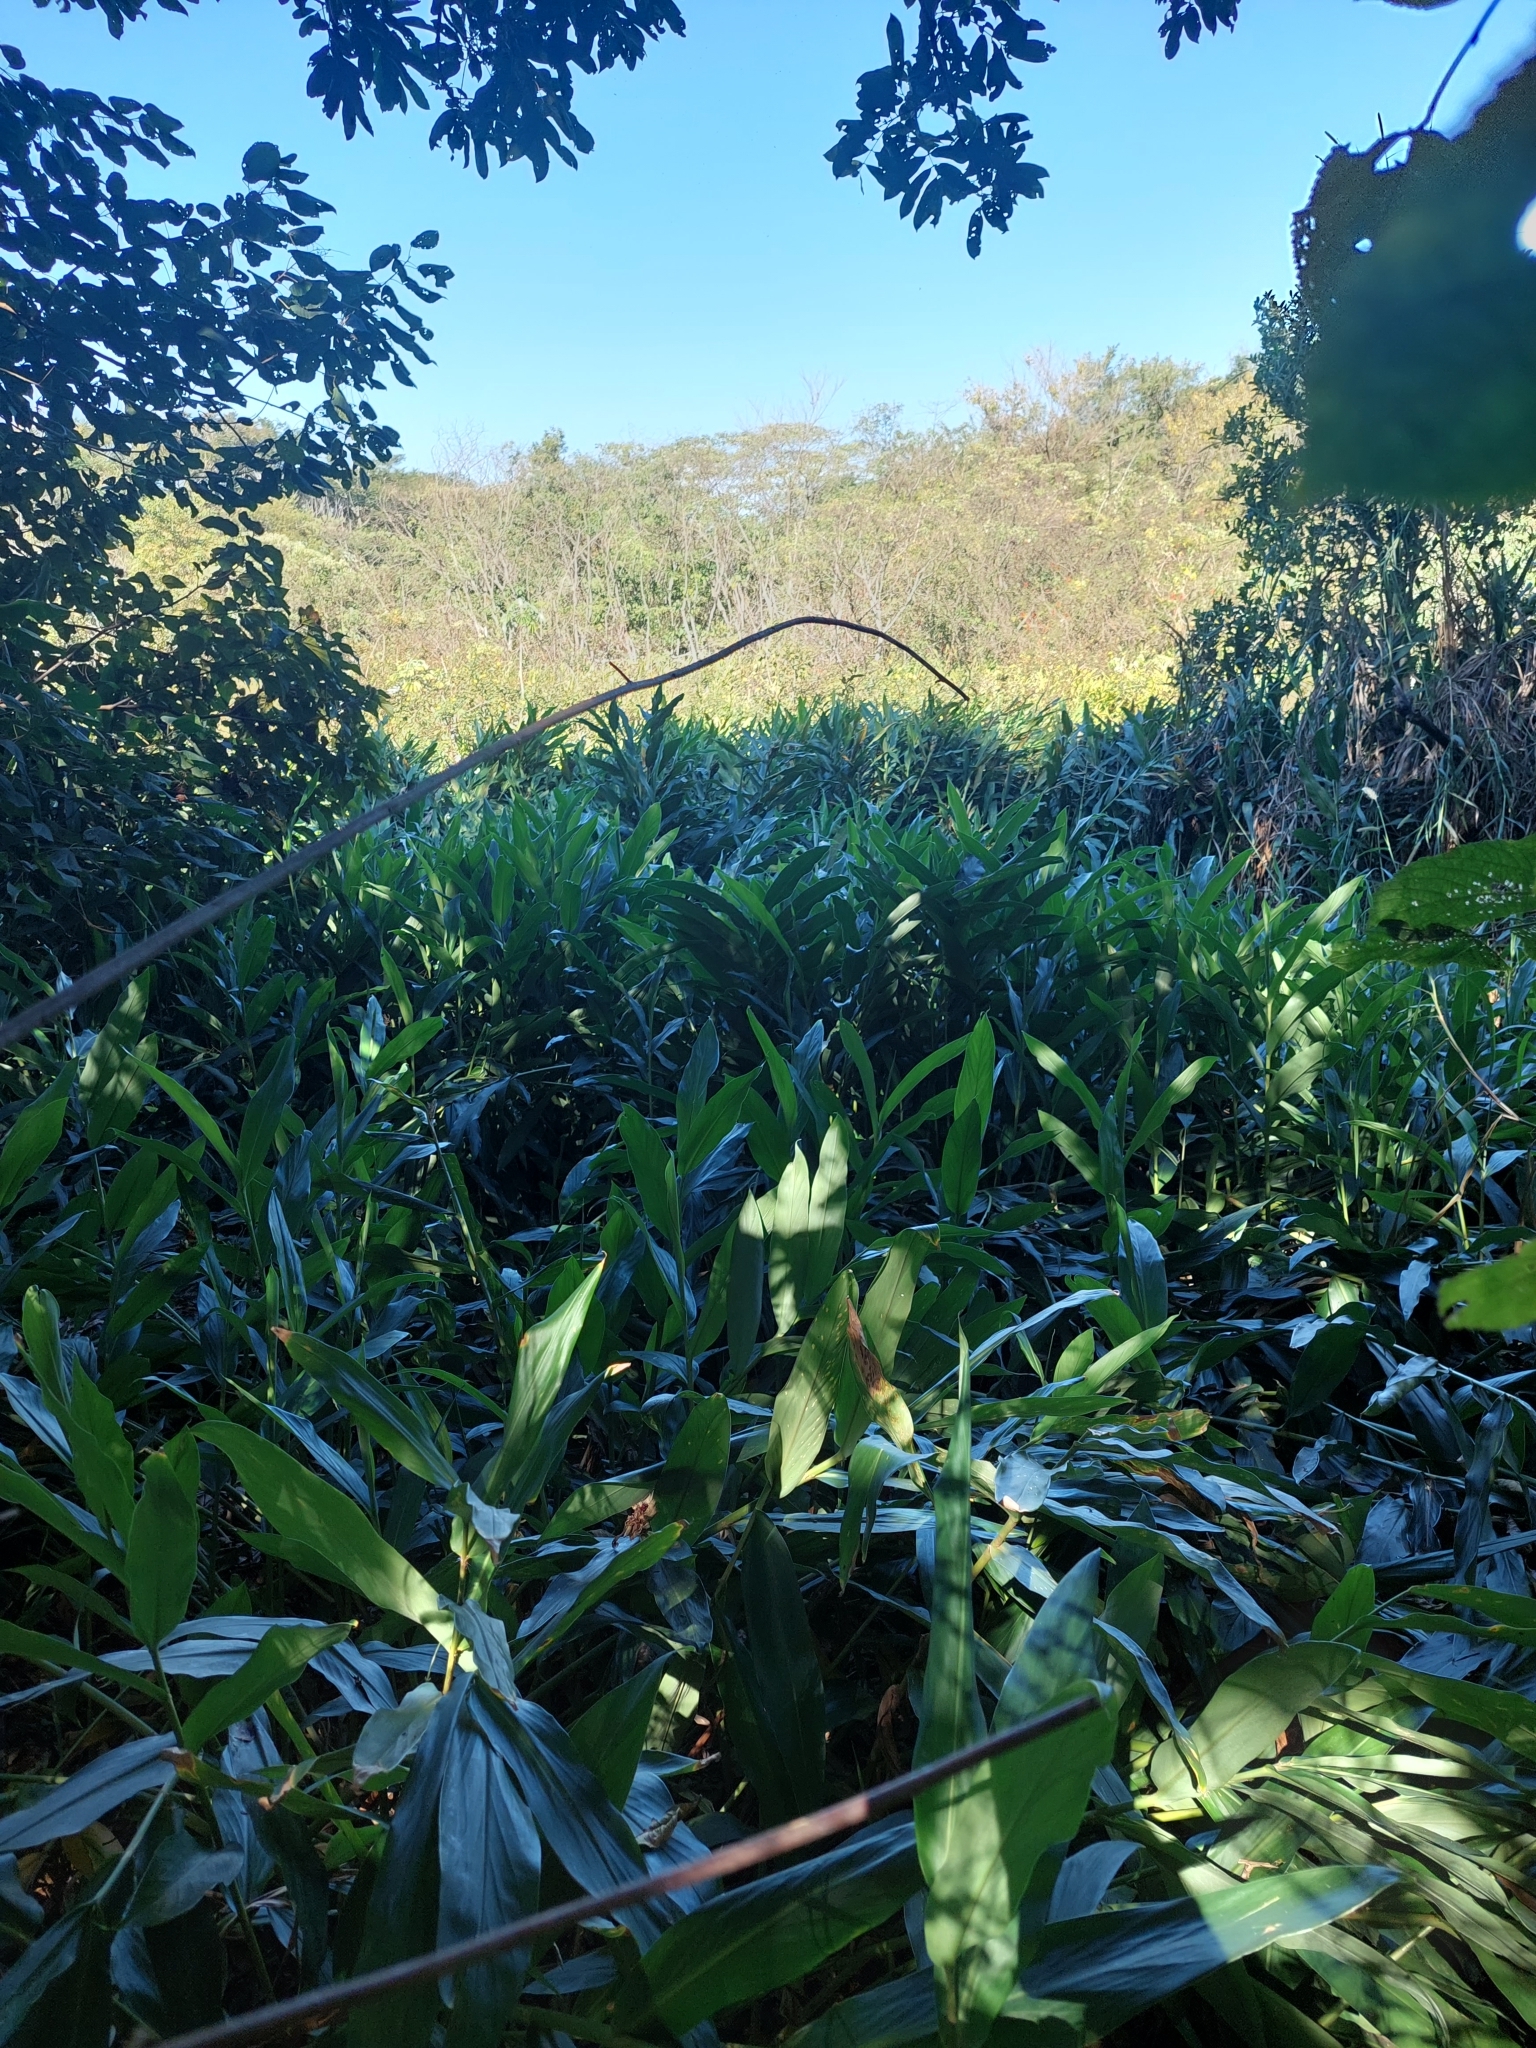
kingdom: Plantae
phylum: Tracheophyta
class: Liliopsida
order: Zingiberales
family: Zingiberaceae
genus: Hedychium
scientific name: Hedychium coronarium
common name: White garland-lily
